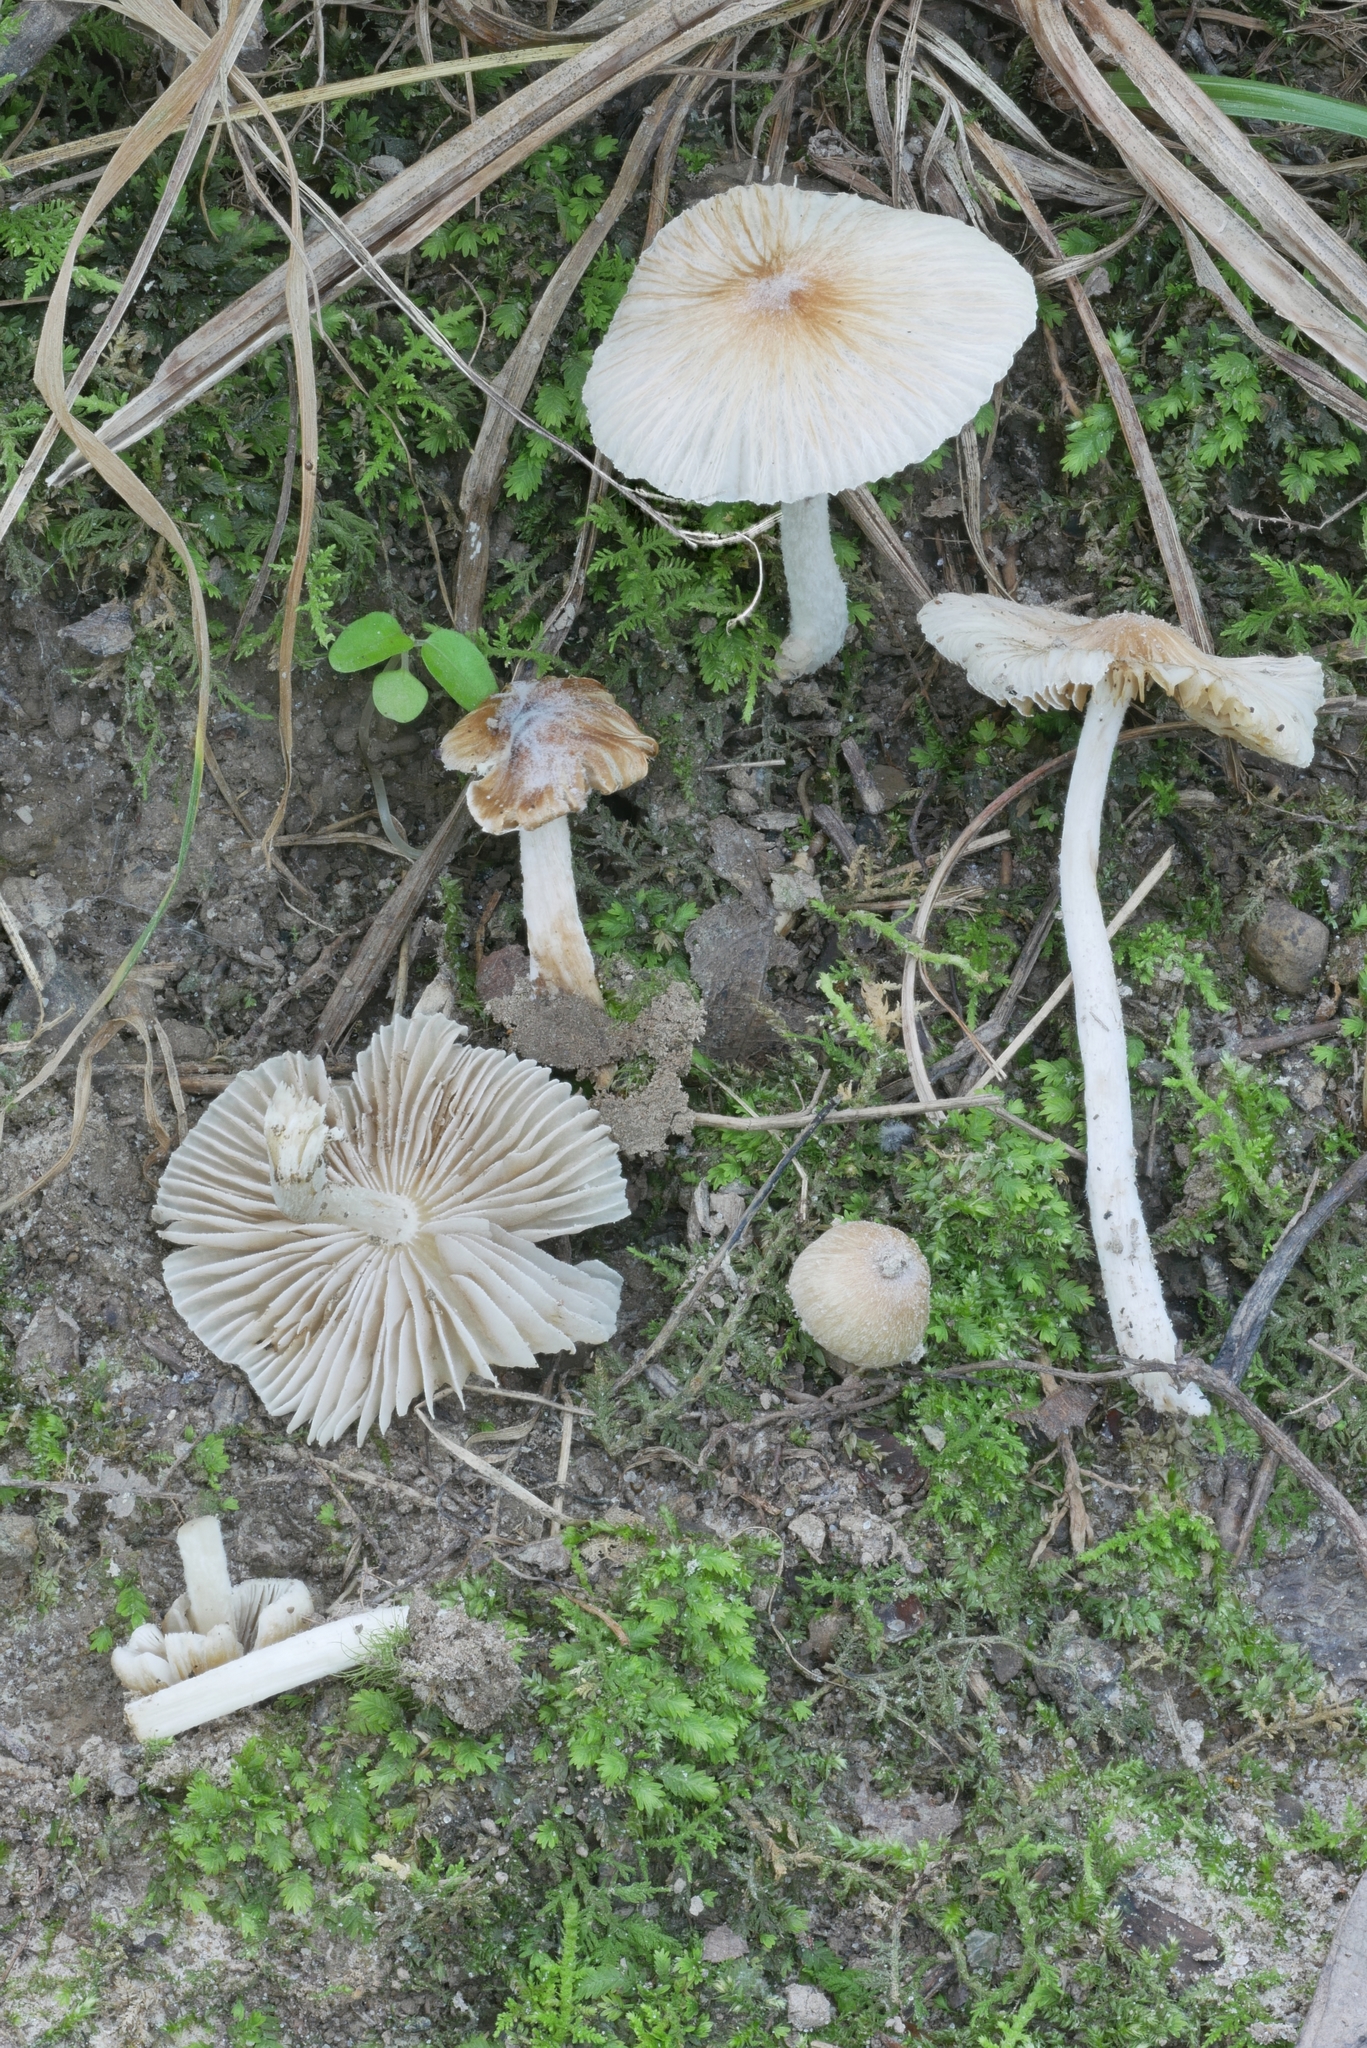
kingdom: Fungi
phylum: Basidiomycota
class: Agaricomycetes
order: Agaricales
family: Inocybaceae
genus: Pseudosperma
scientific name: Pseudosperma friabile
